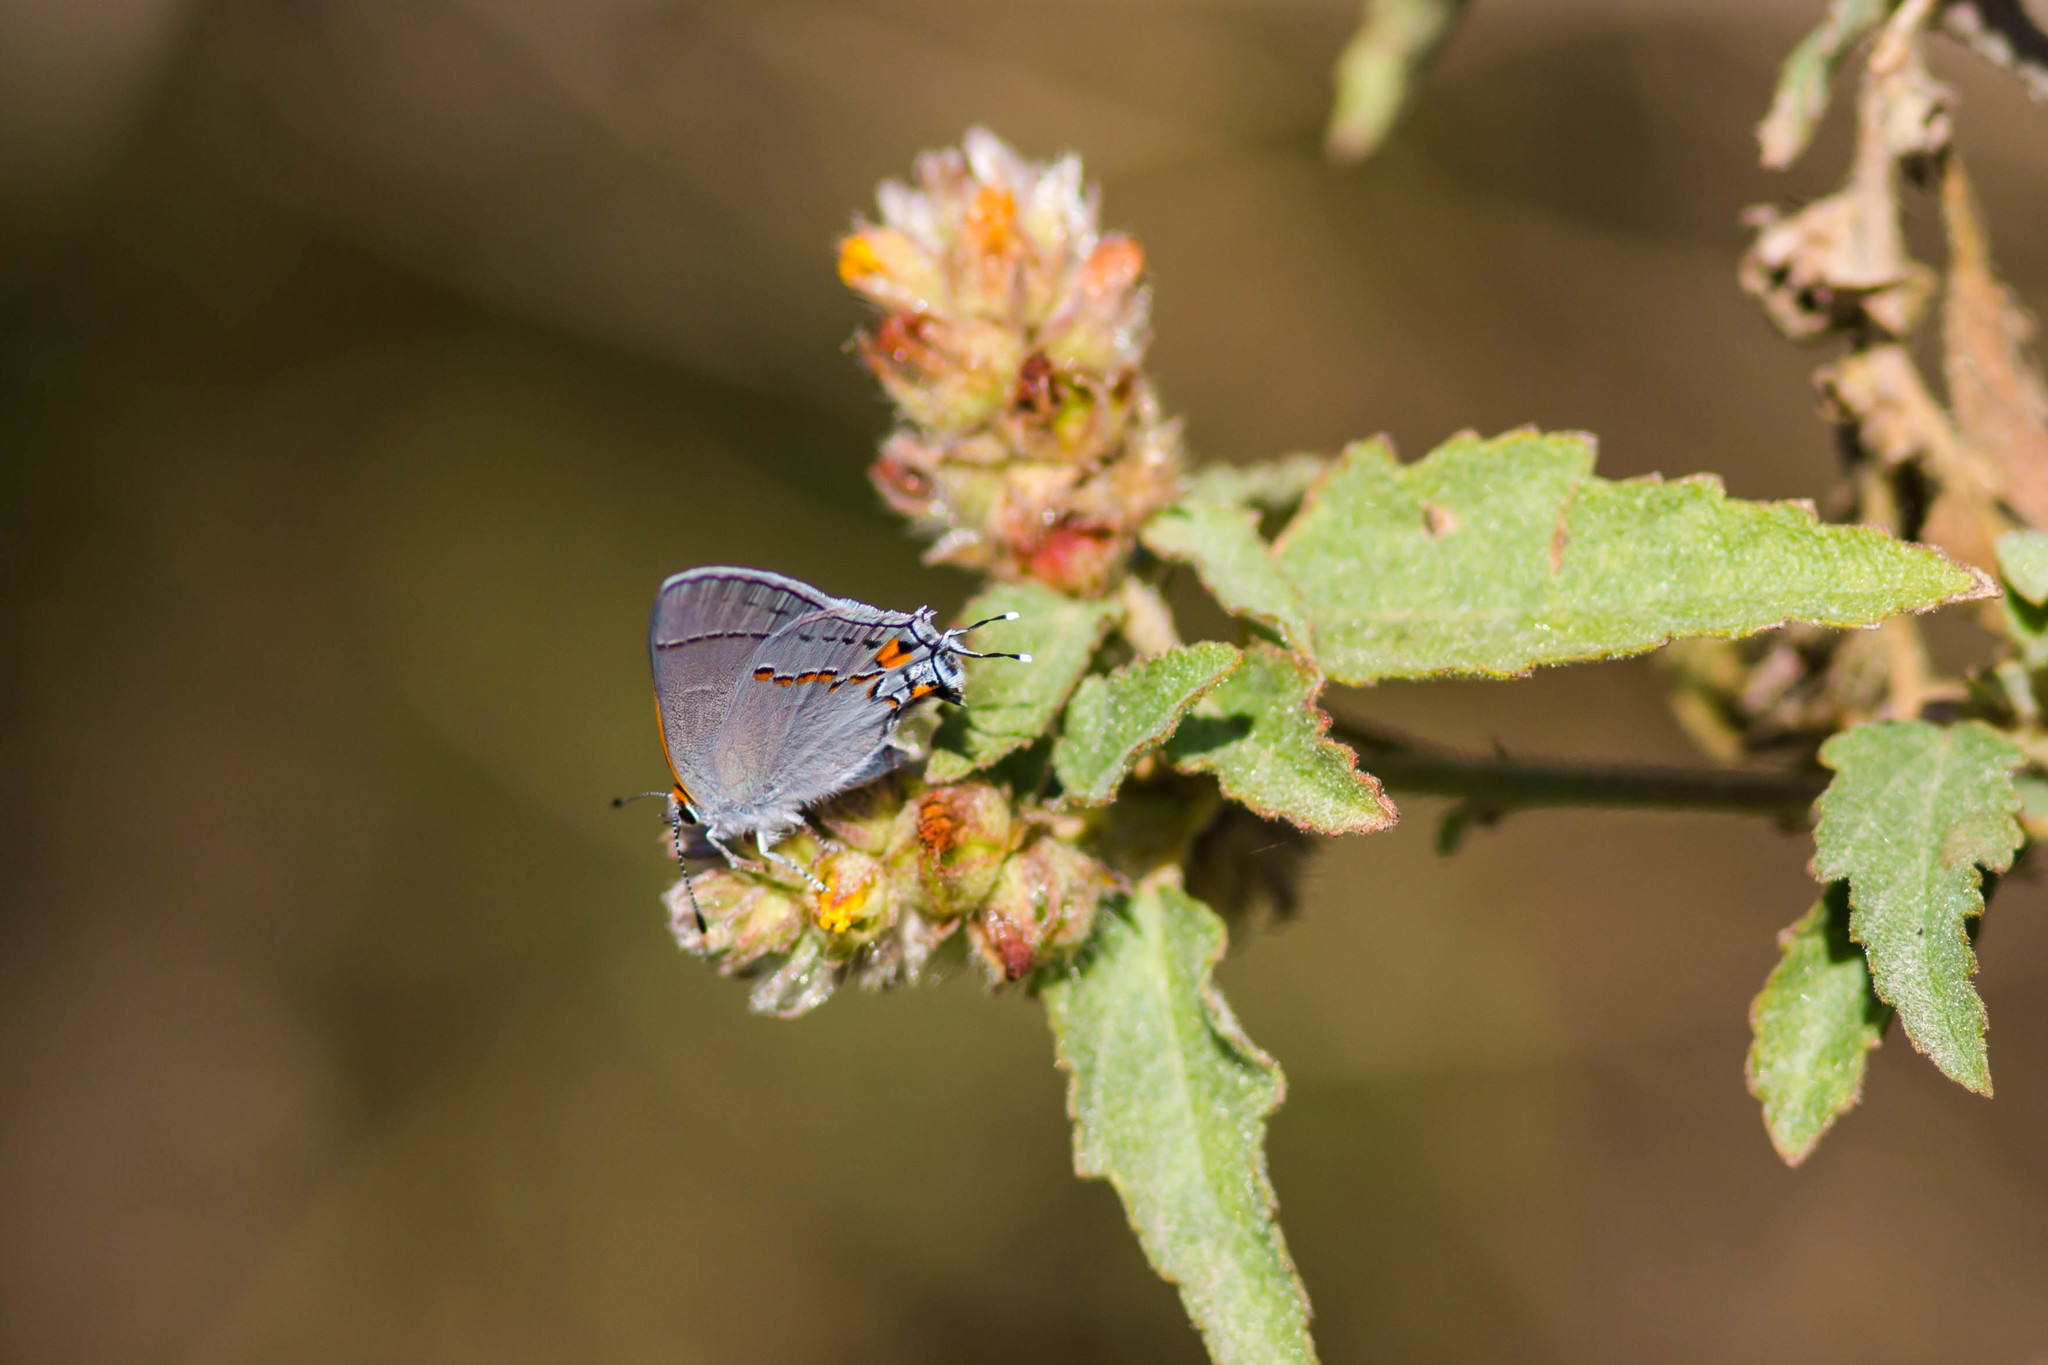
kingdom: Animalia
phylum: Arthropoda
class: Insecta
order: Lepidoptera
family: Lycaenidae
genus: Strymon
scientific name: Strymon melinus
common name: Gray hairstreak
